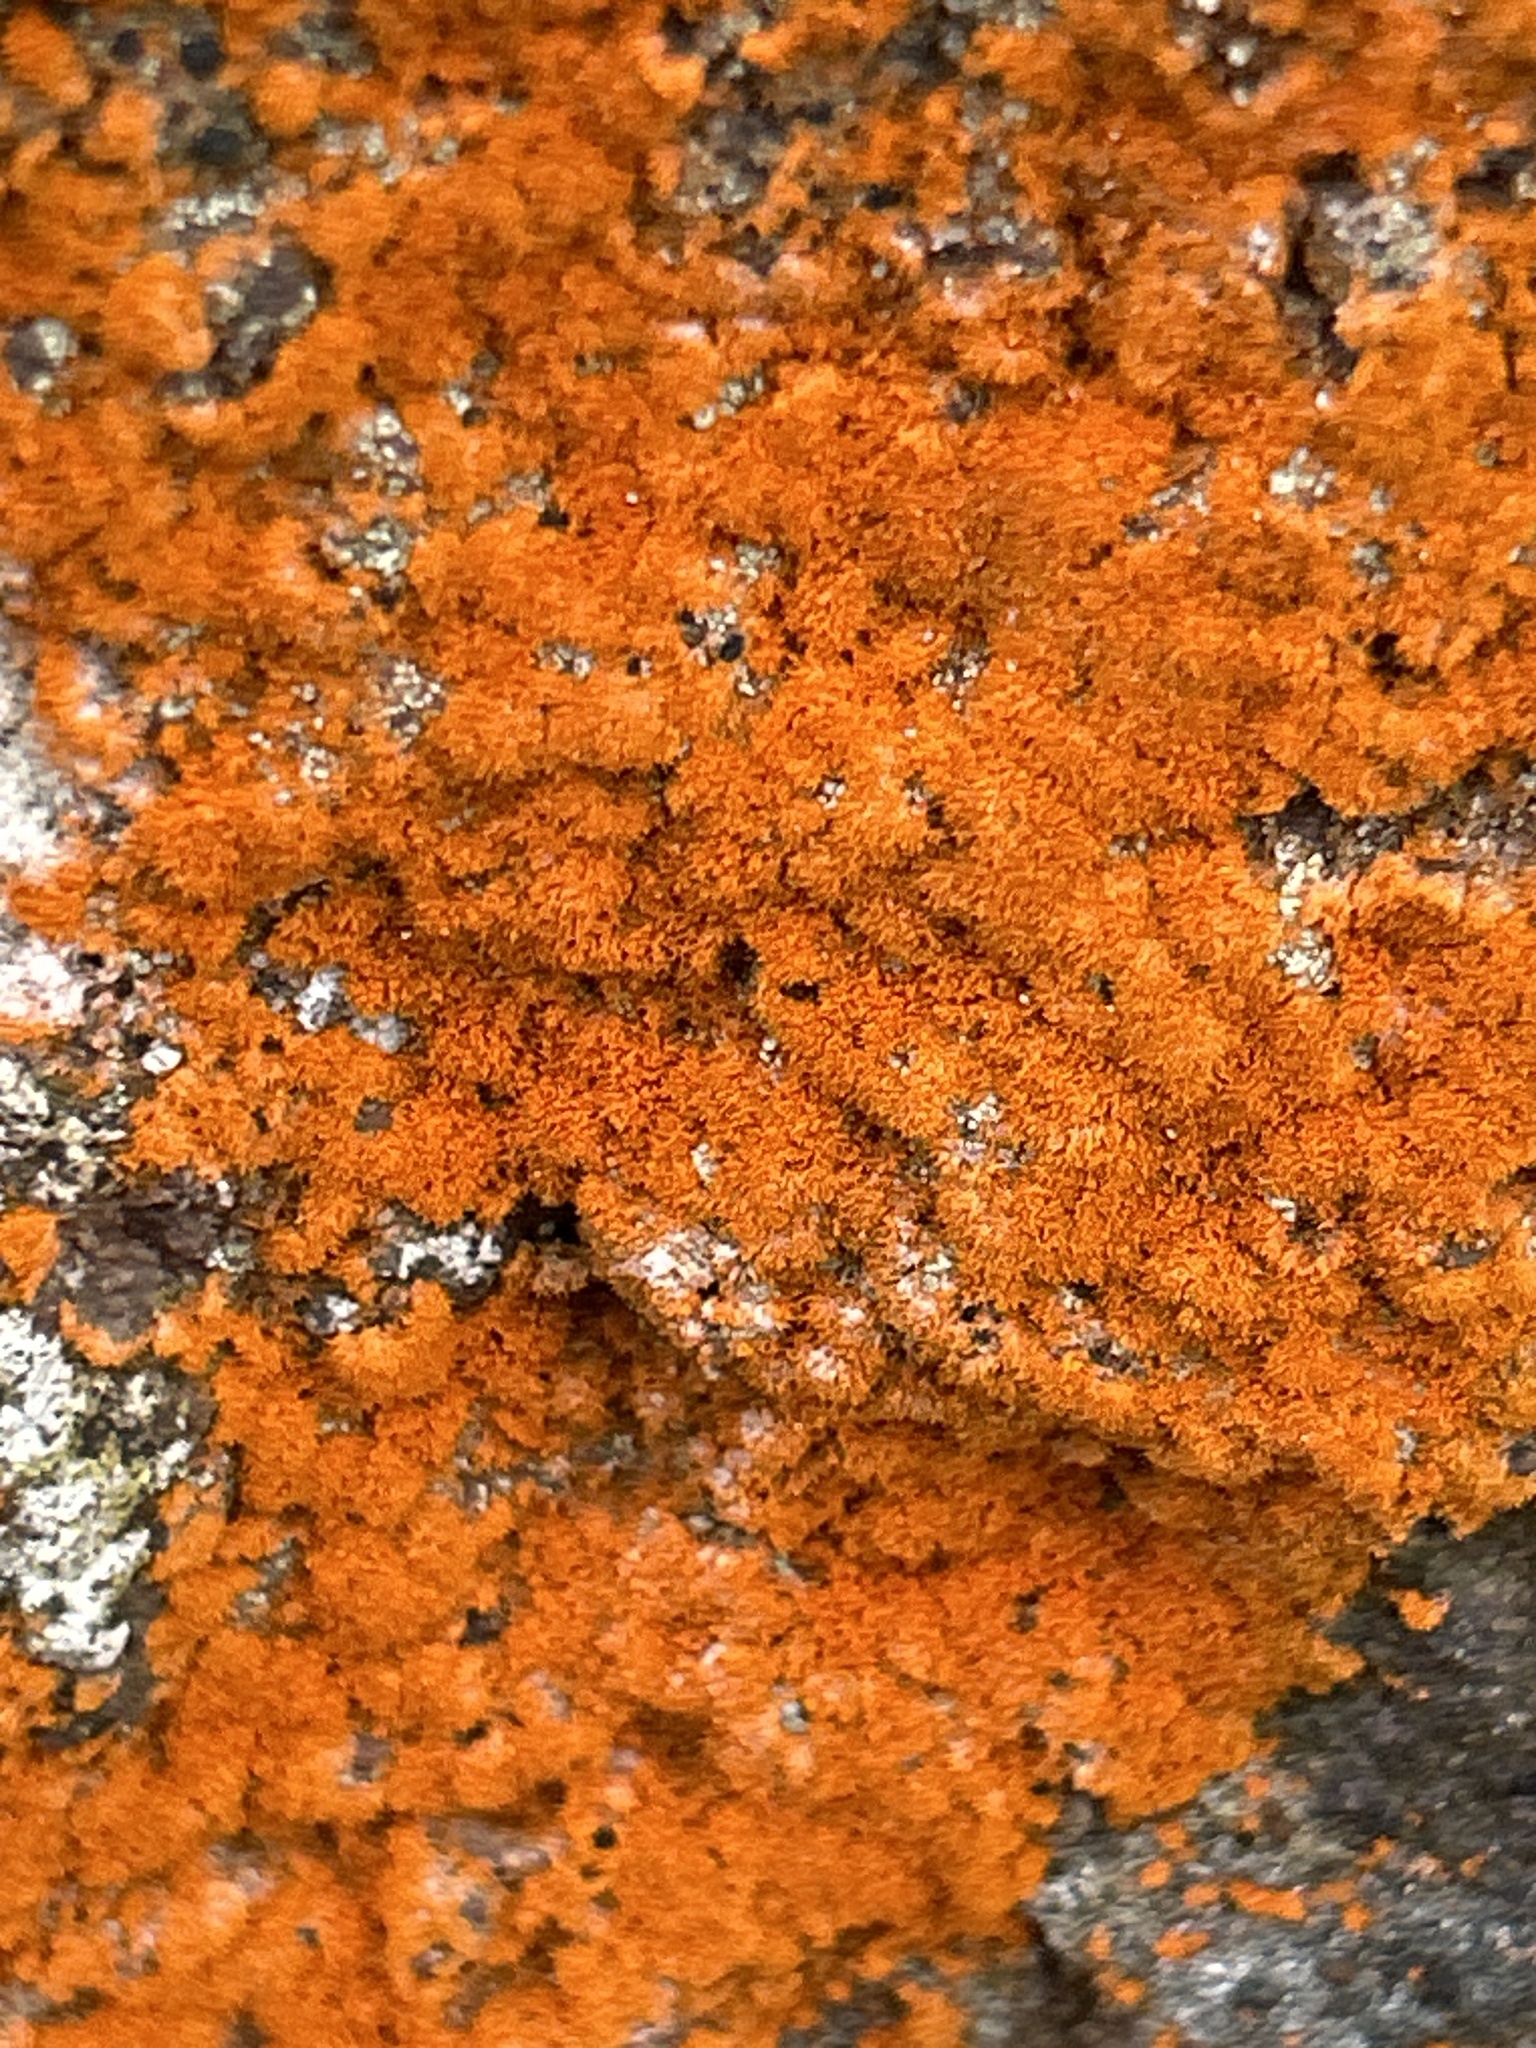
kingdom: Plantae
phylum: Chlorophyta
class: Ulvophyceae
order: Trentepohliales
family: Trentepohliaceae
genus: Trentepohlia
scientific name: Trentepohlia aurea
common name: Orange rock hair
